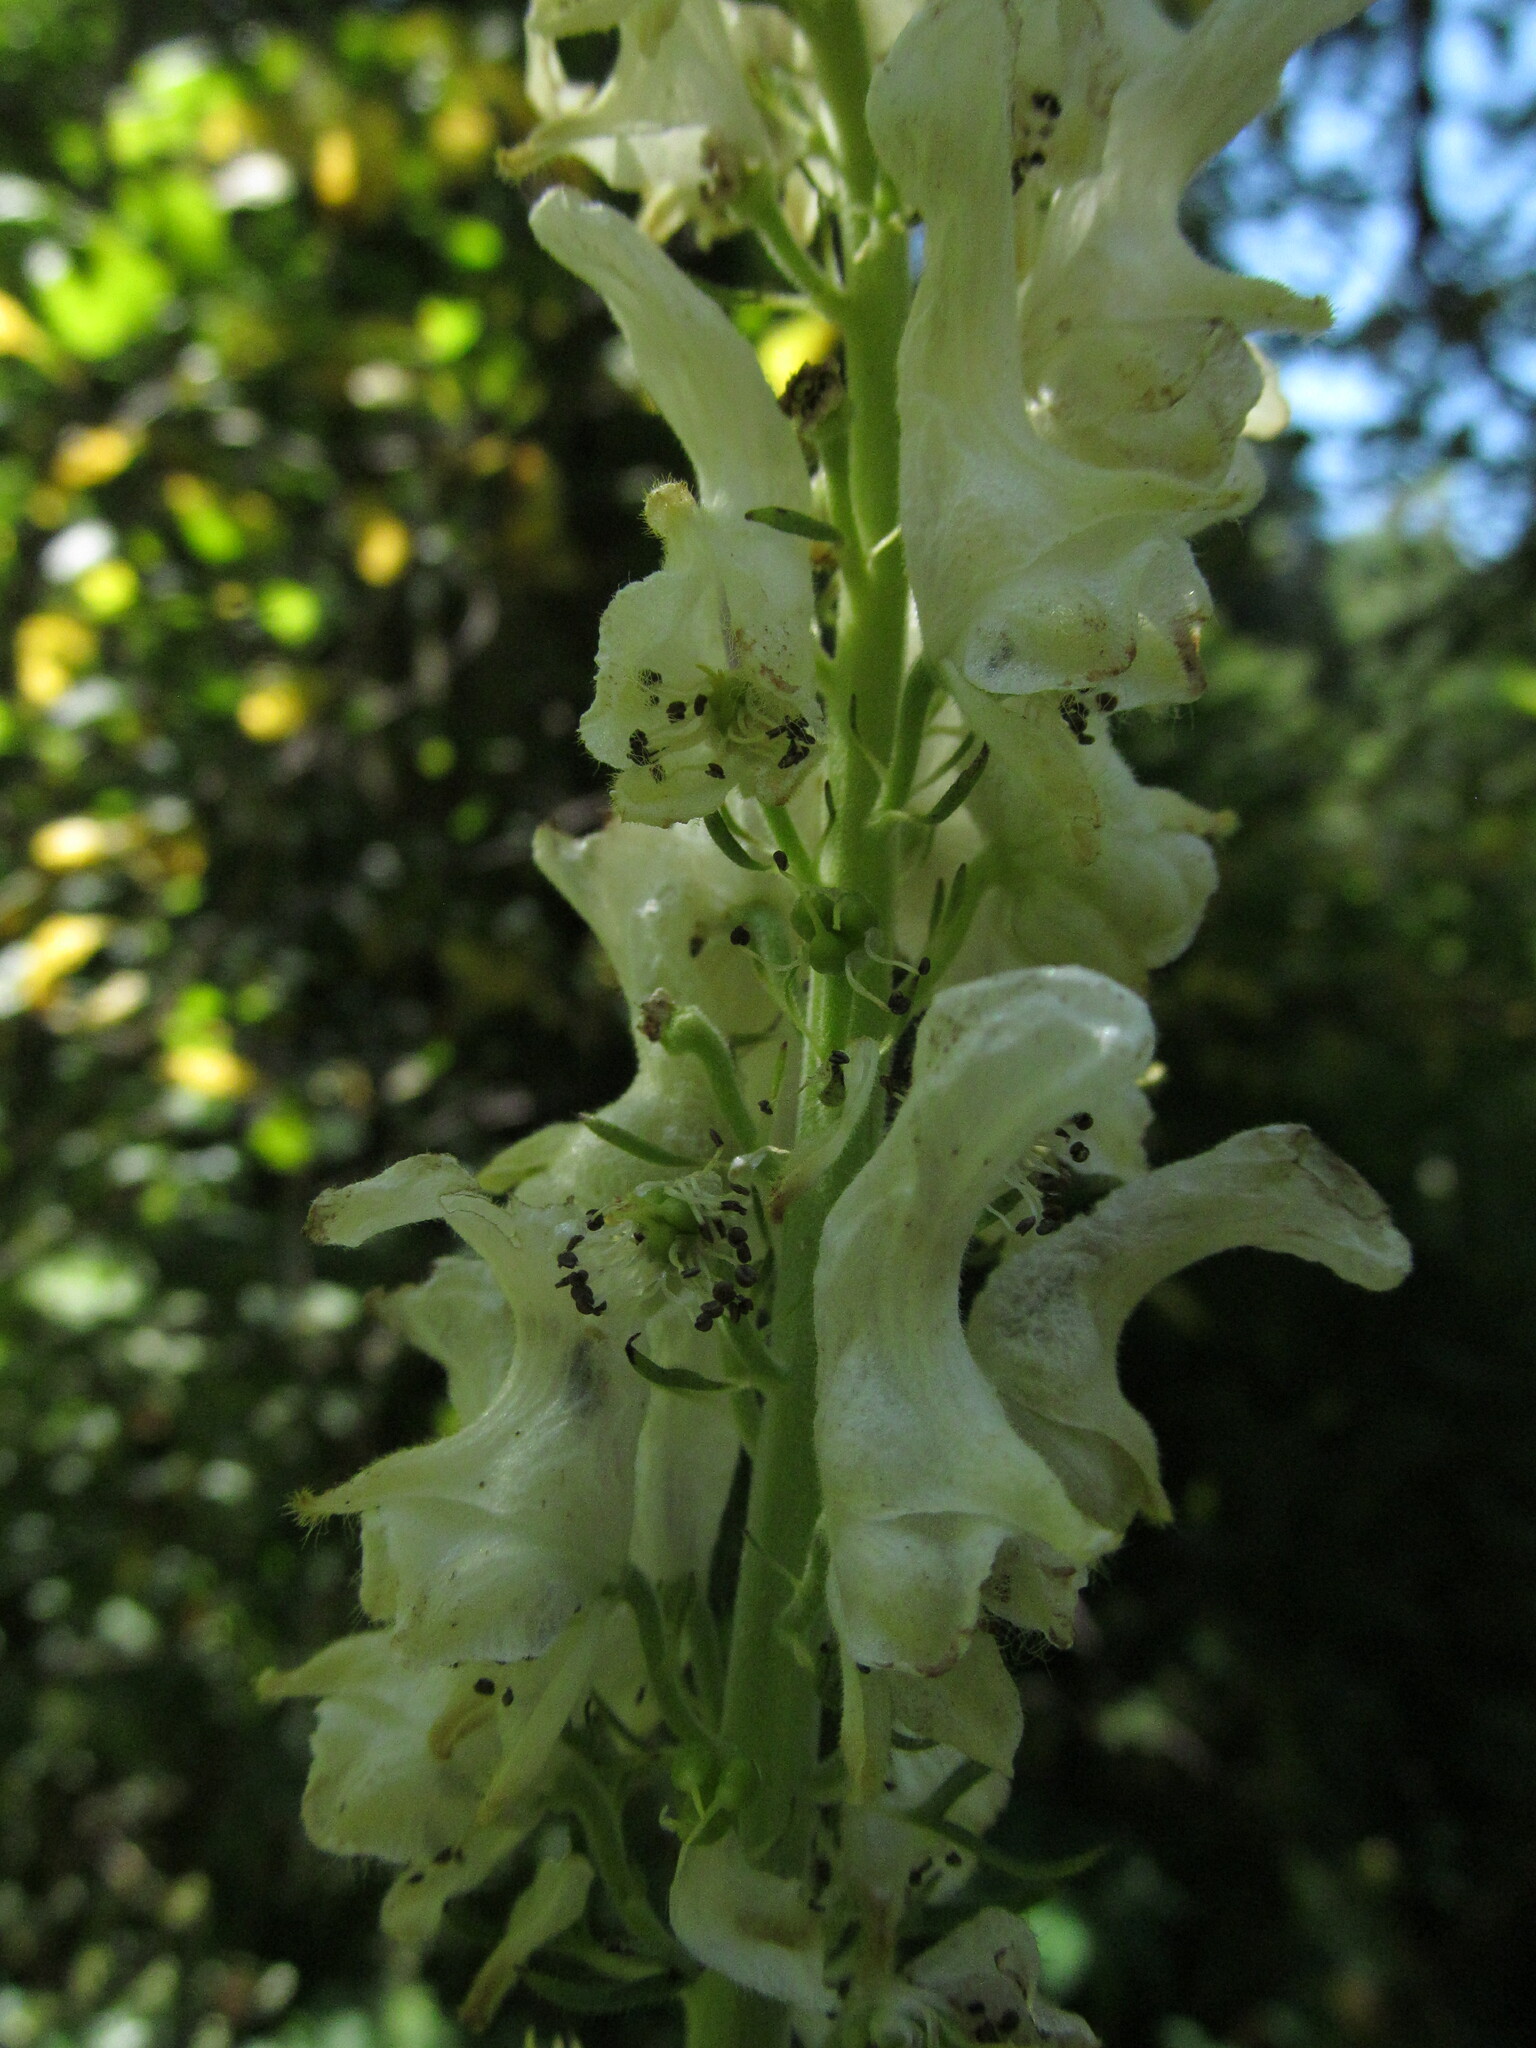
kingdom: Plantae
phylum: Tracheophyta
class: Magnoliopsida
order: Ranunculales
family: Ranunculaceae
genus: Aconitum
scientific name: Aconitum orientale
